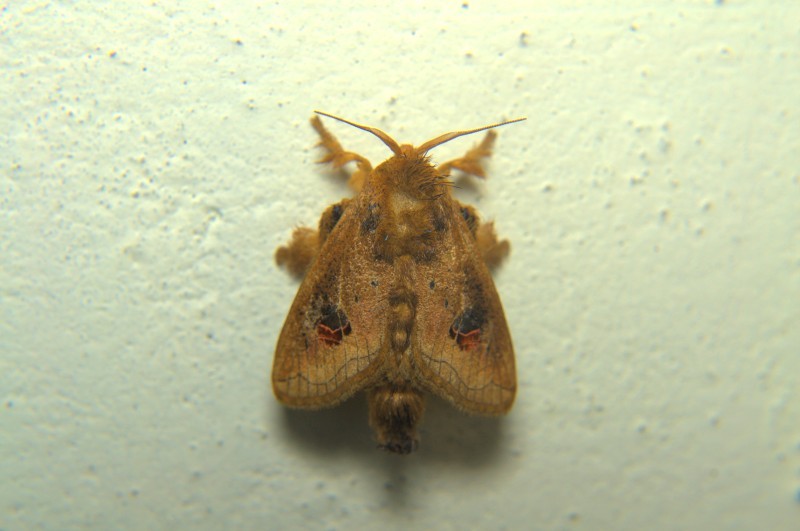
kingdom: Animalia
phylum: Arthropoda
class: Insecta
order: Lepidoptera
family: Limacodidae
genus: Squamosa
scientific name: Squamosa ocellata
